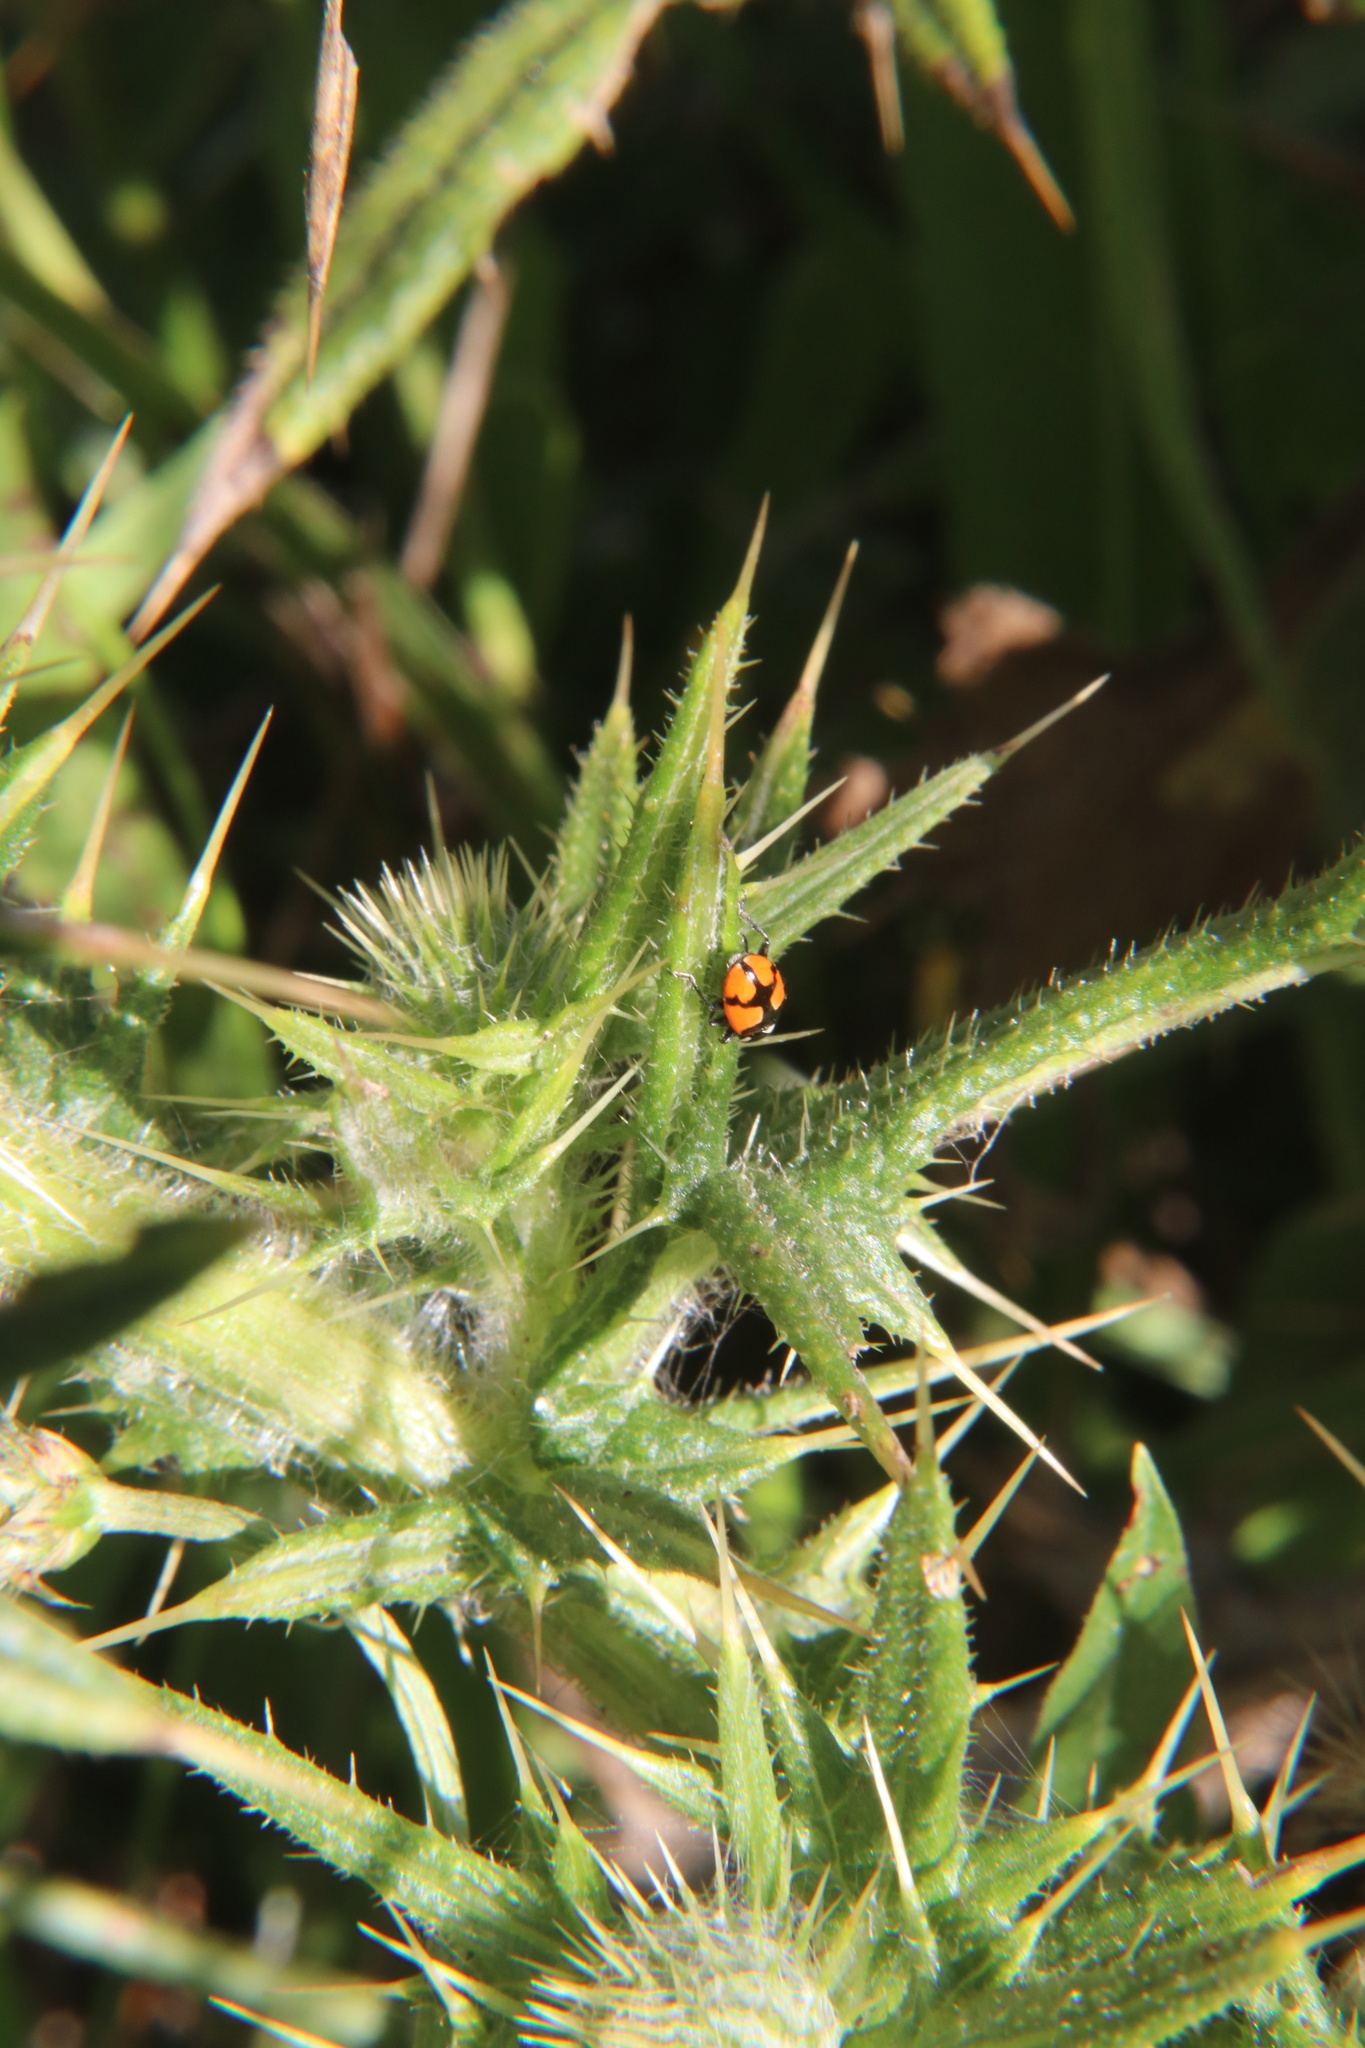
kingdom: Animalia
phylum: Arthropoda
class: Insecta
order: Coleoptera
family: Coccinellidae
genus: Eriopis
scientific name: Eriopis eschscholtzii
